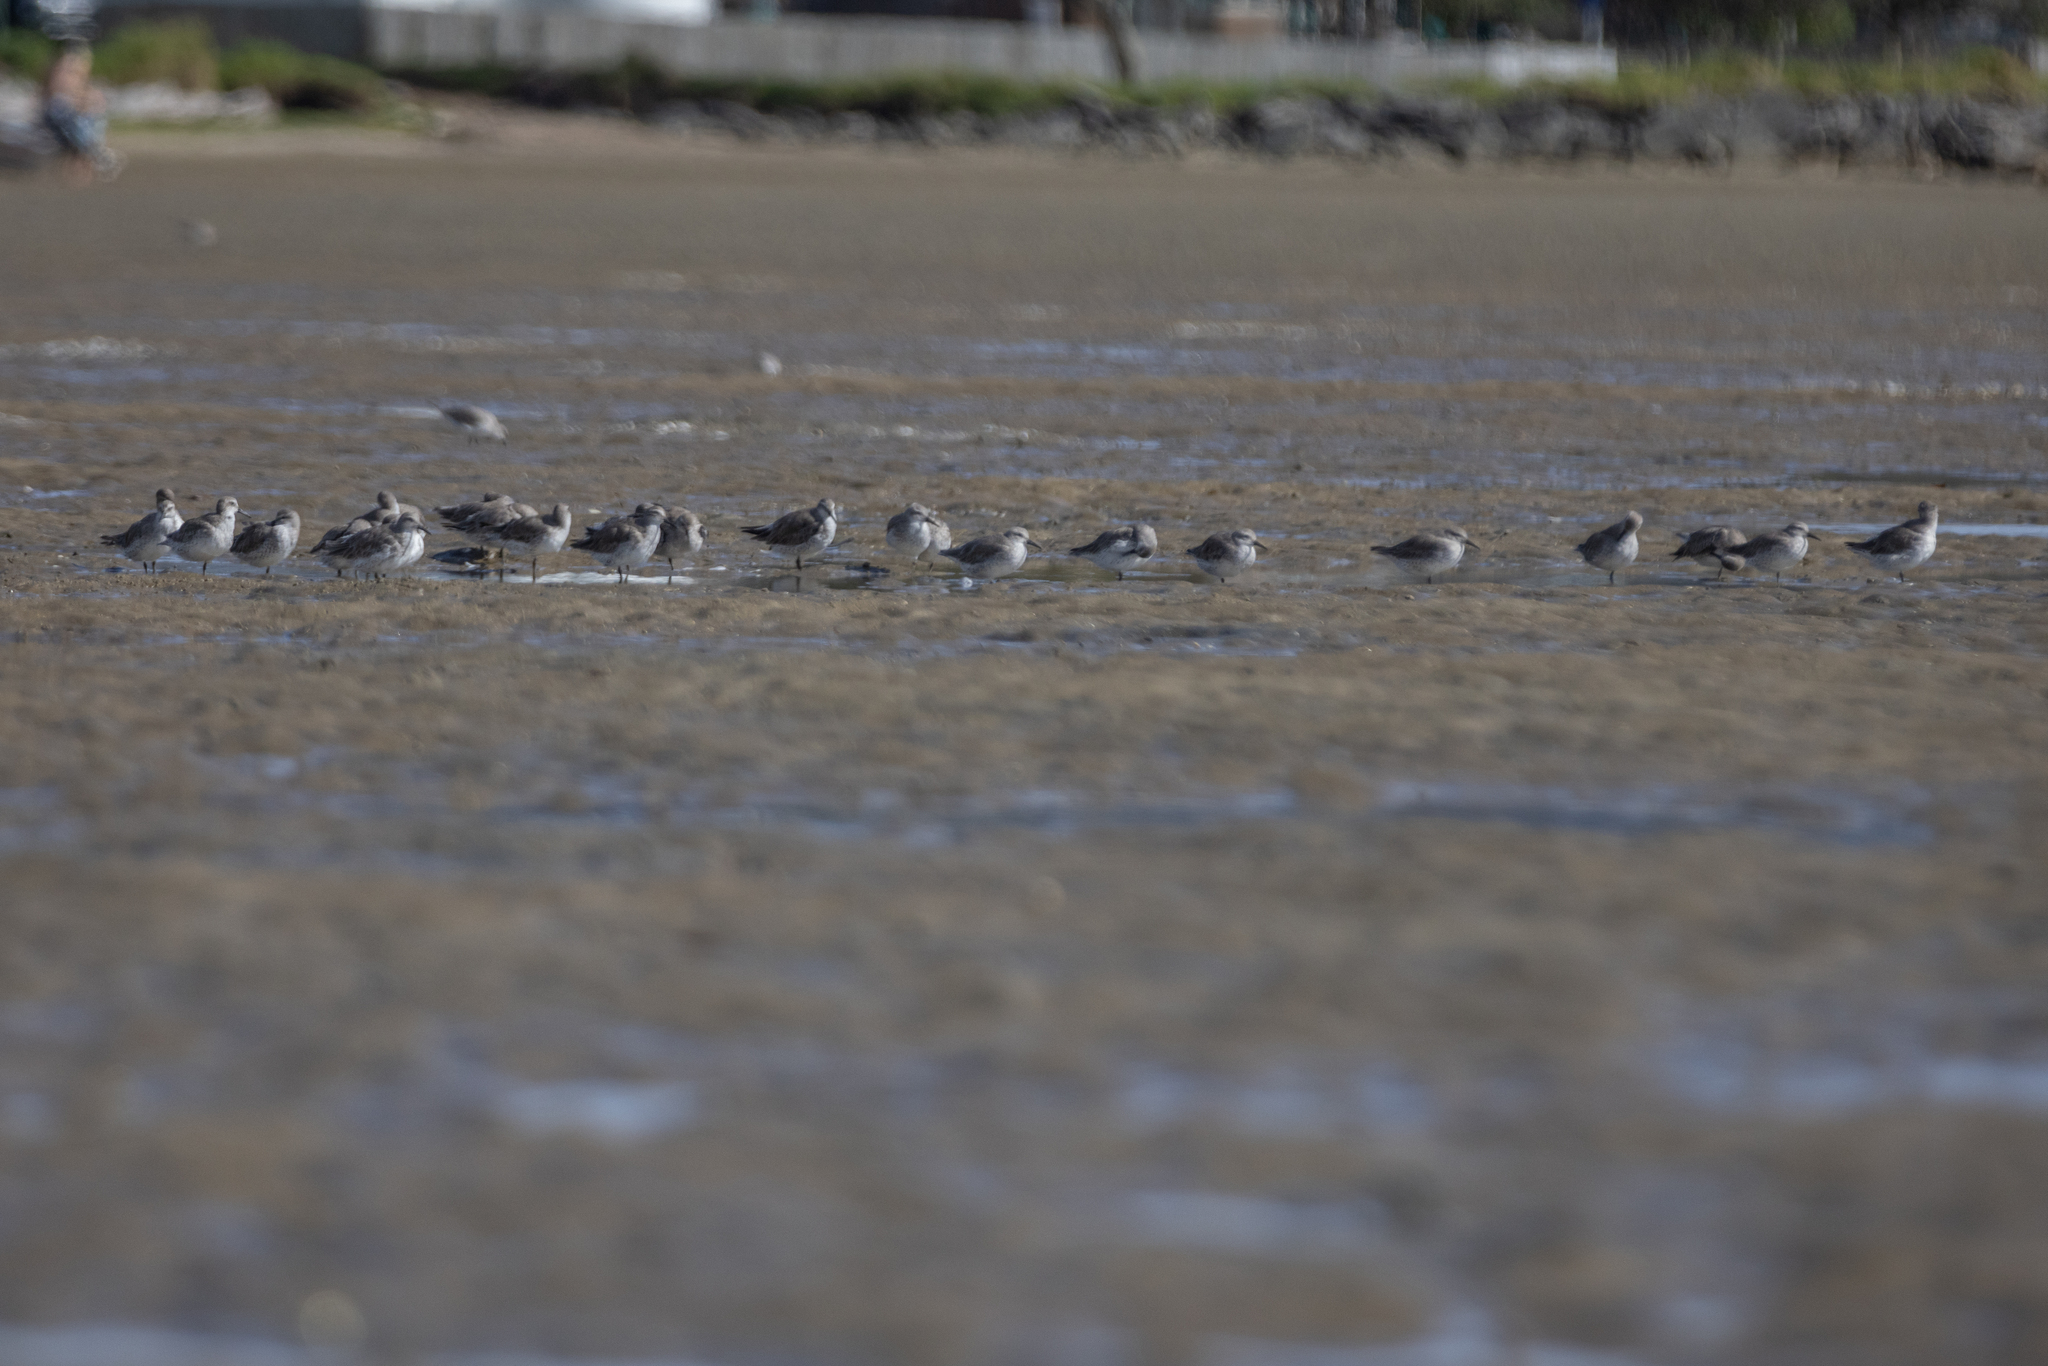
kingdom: Animalia
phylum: Chordata
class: Aves
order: Charadriiformes
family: Scolopacidae
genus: Calidris
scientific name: Calidris canutus
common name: Red knot
